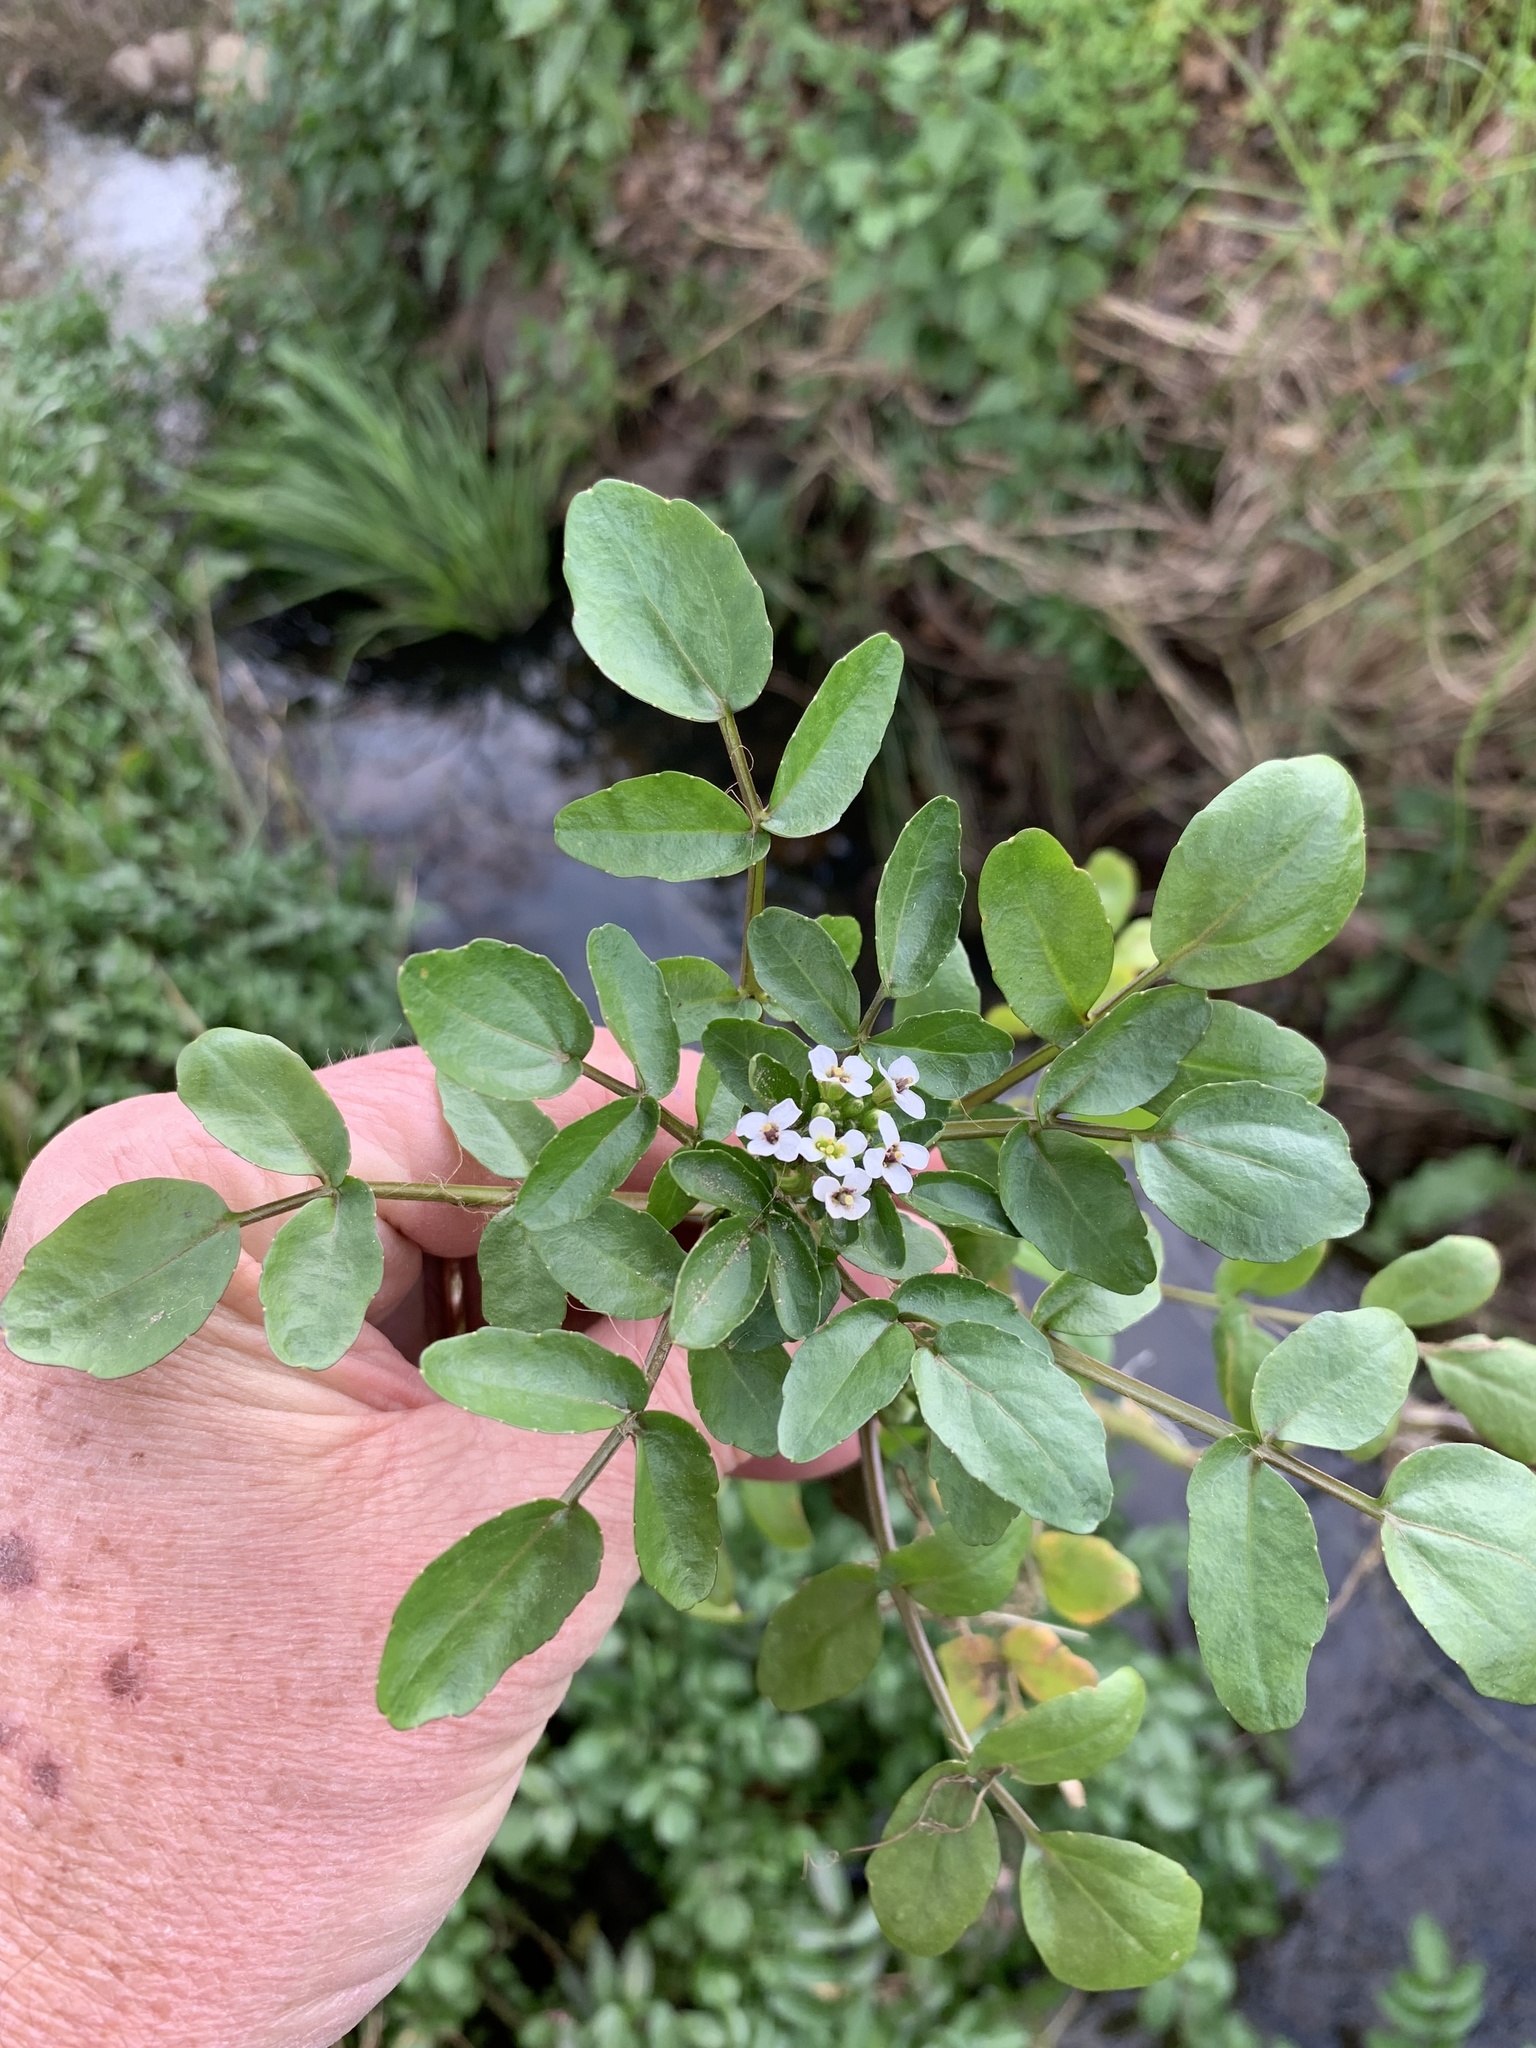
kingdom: Plantae
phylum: Tracheophyta
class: Magnoliopsida
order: Brassicales
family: Brassicaceae
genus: Nasturtium
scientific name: Nasturtium officinale
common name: Watercress
